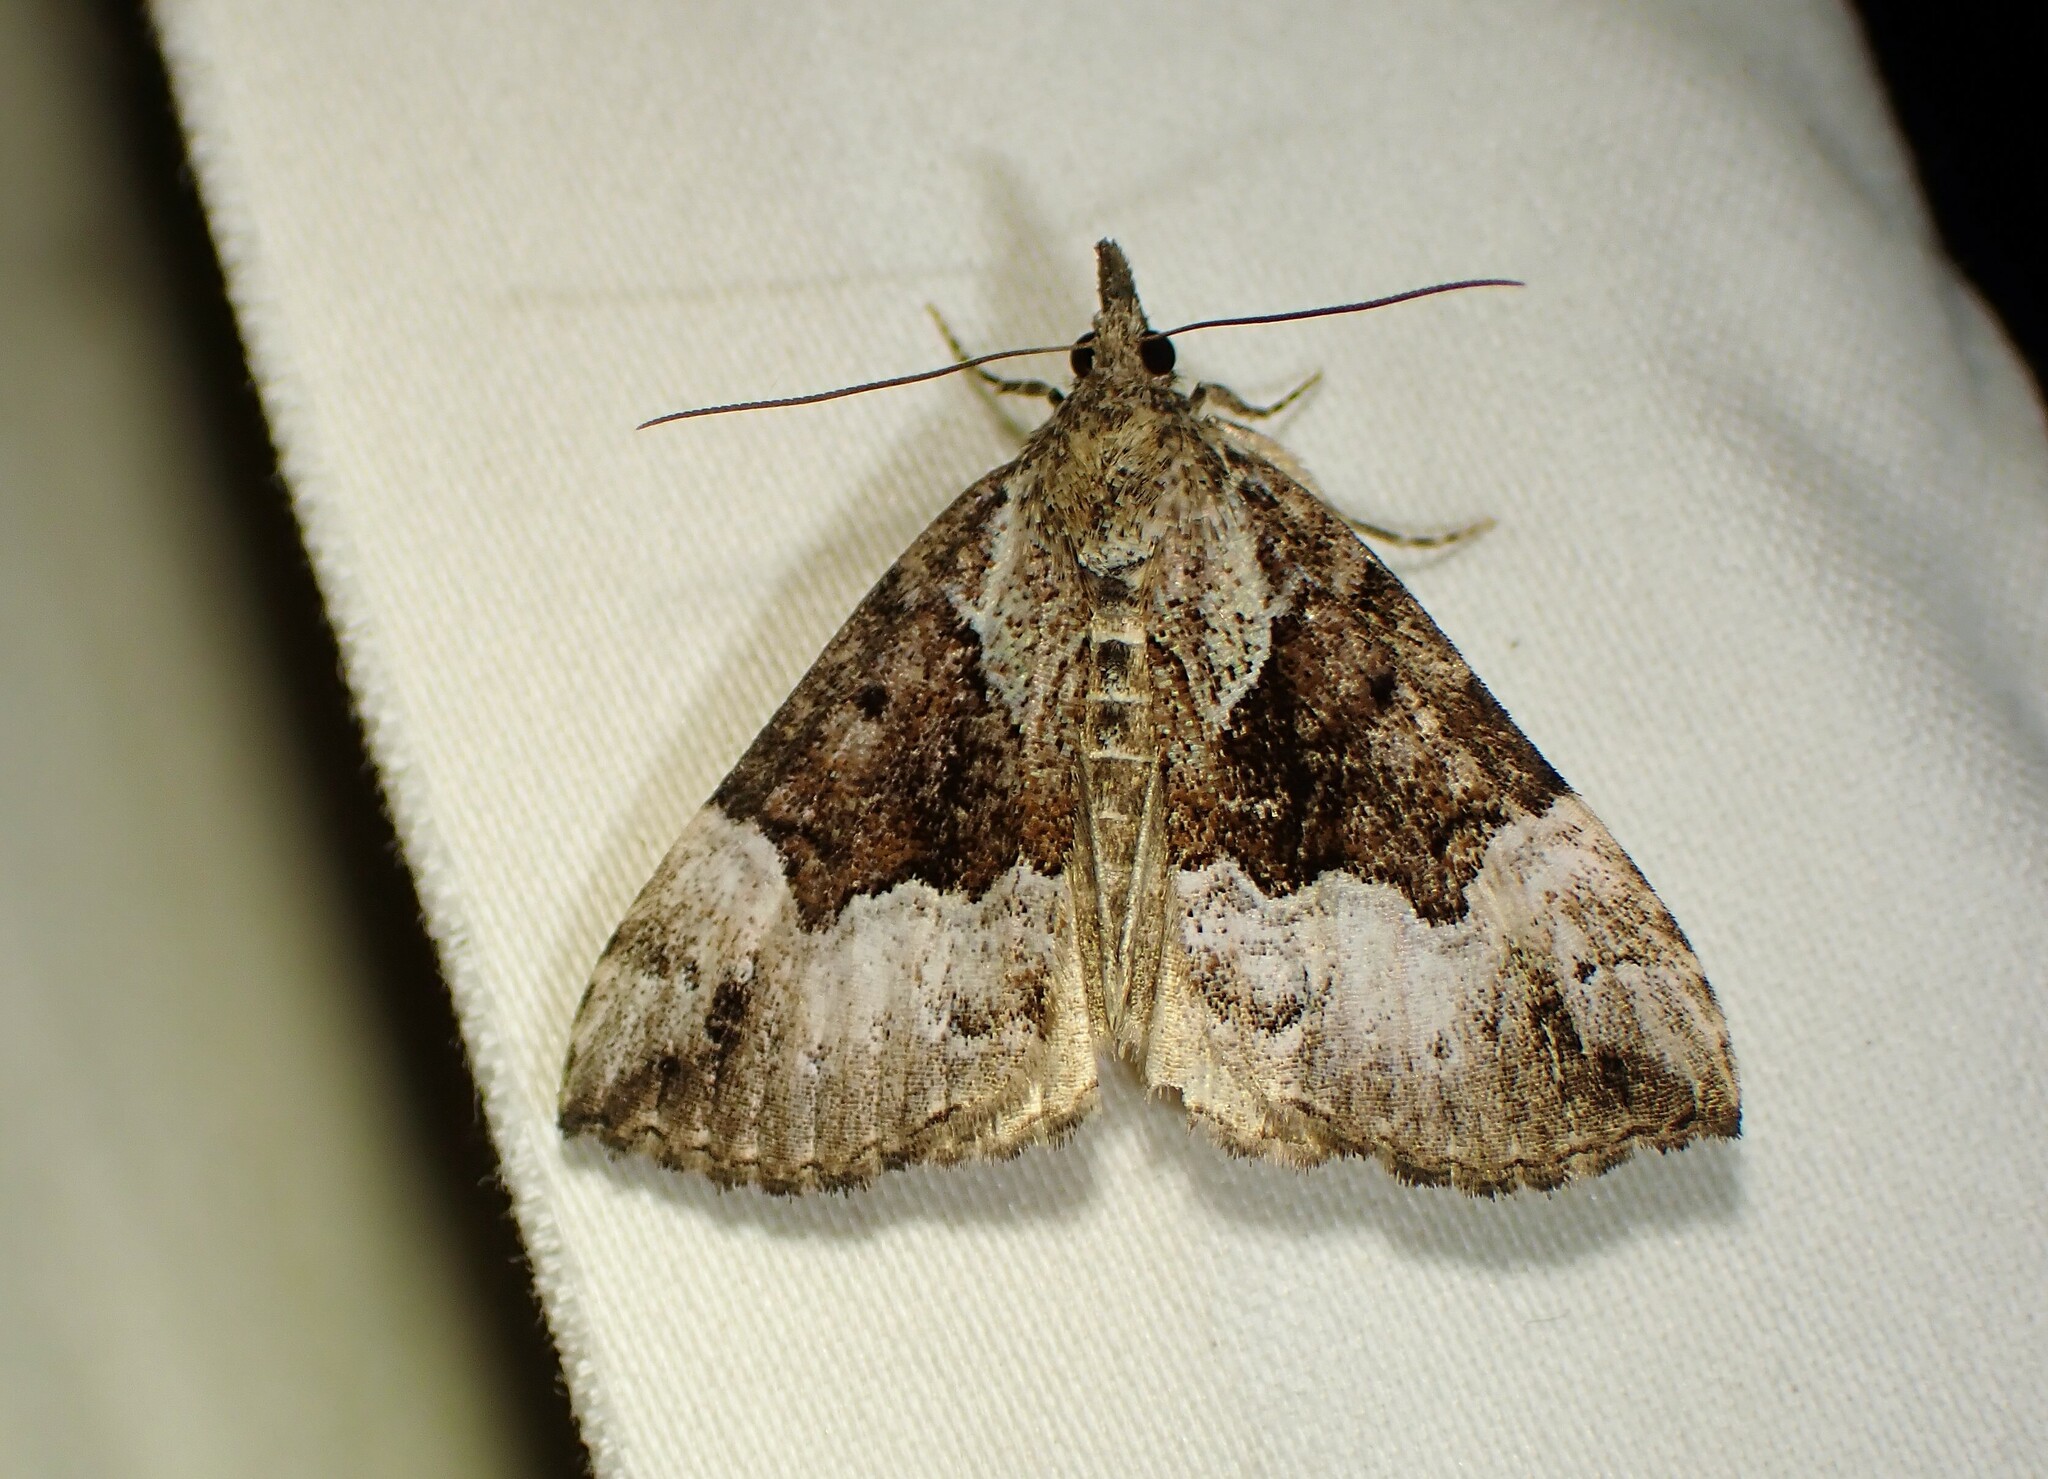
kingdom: Animalia
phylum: Arthropoda
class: Insecta
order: Lepidoptera
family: Erebidae
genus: Hypena
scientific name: Hypena palparia
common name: Mottled bomolocha moth
